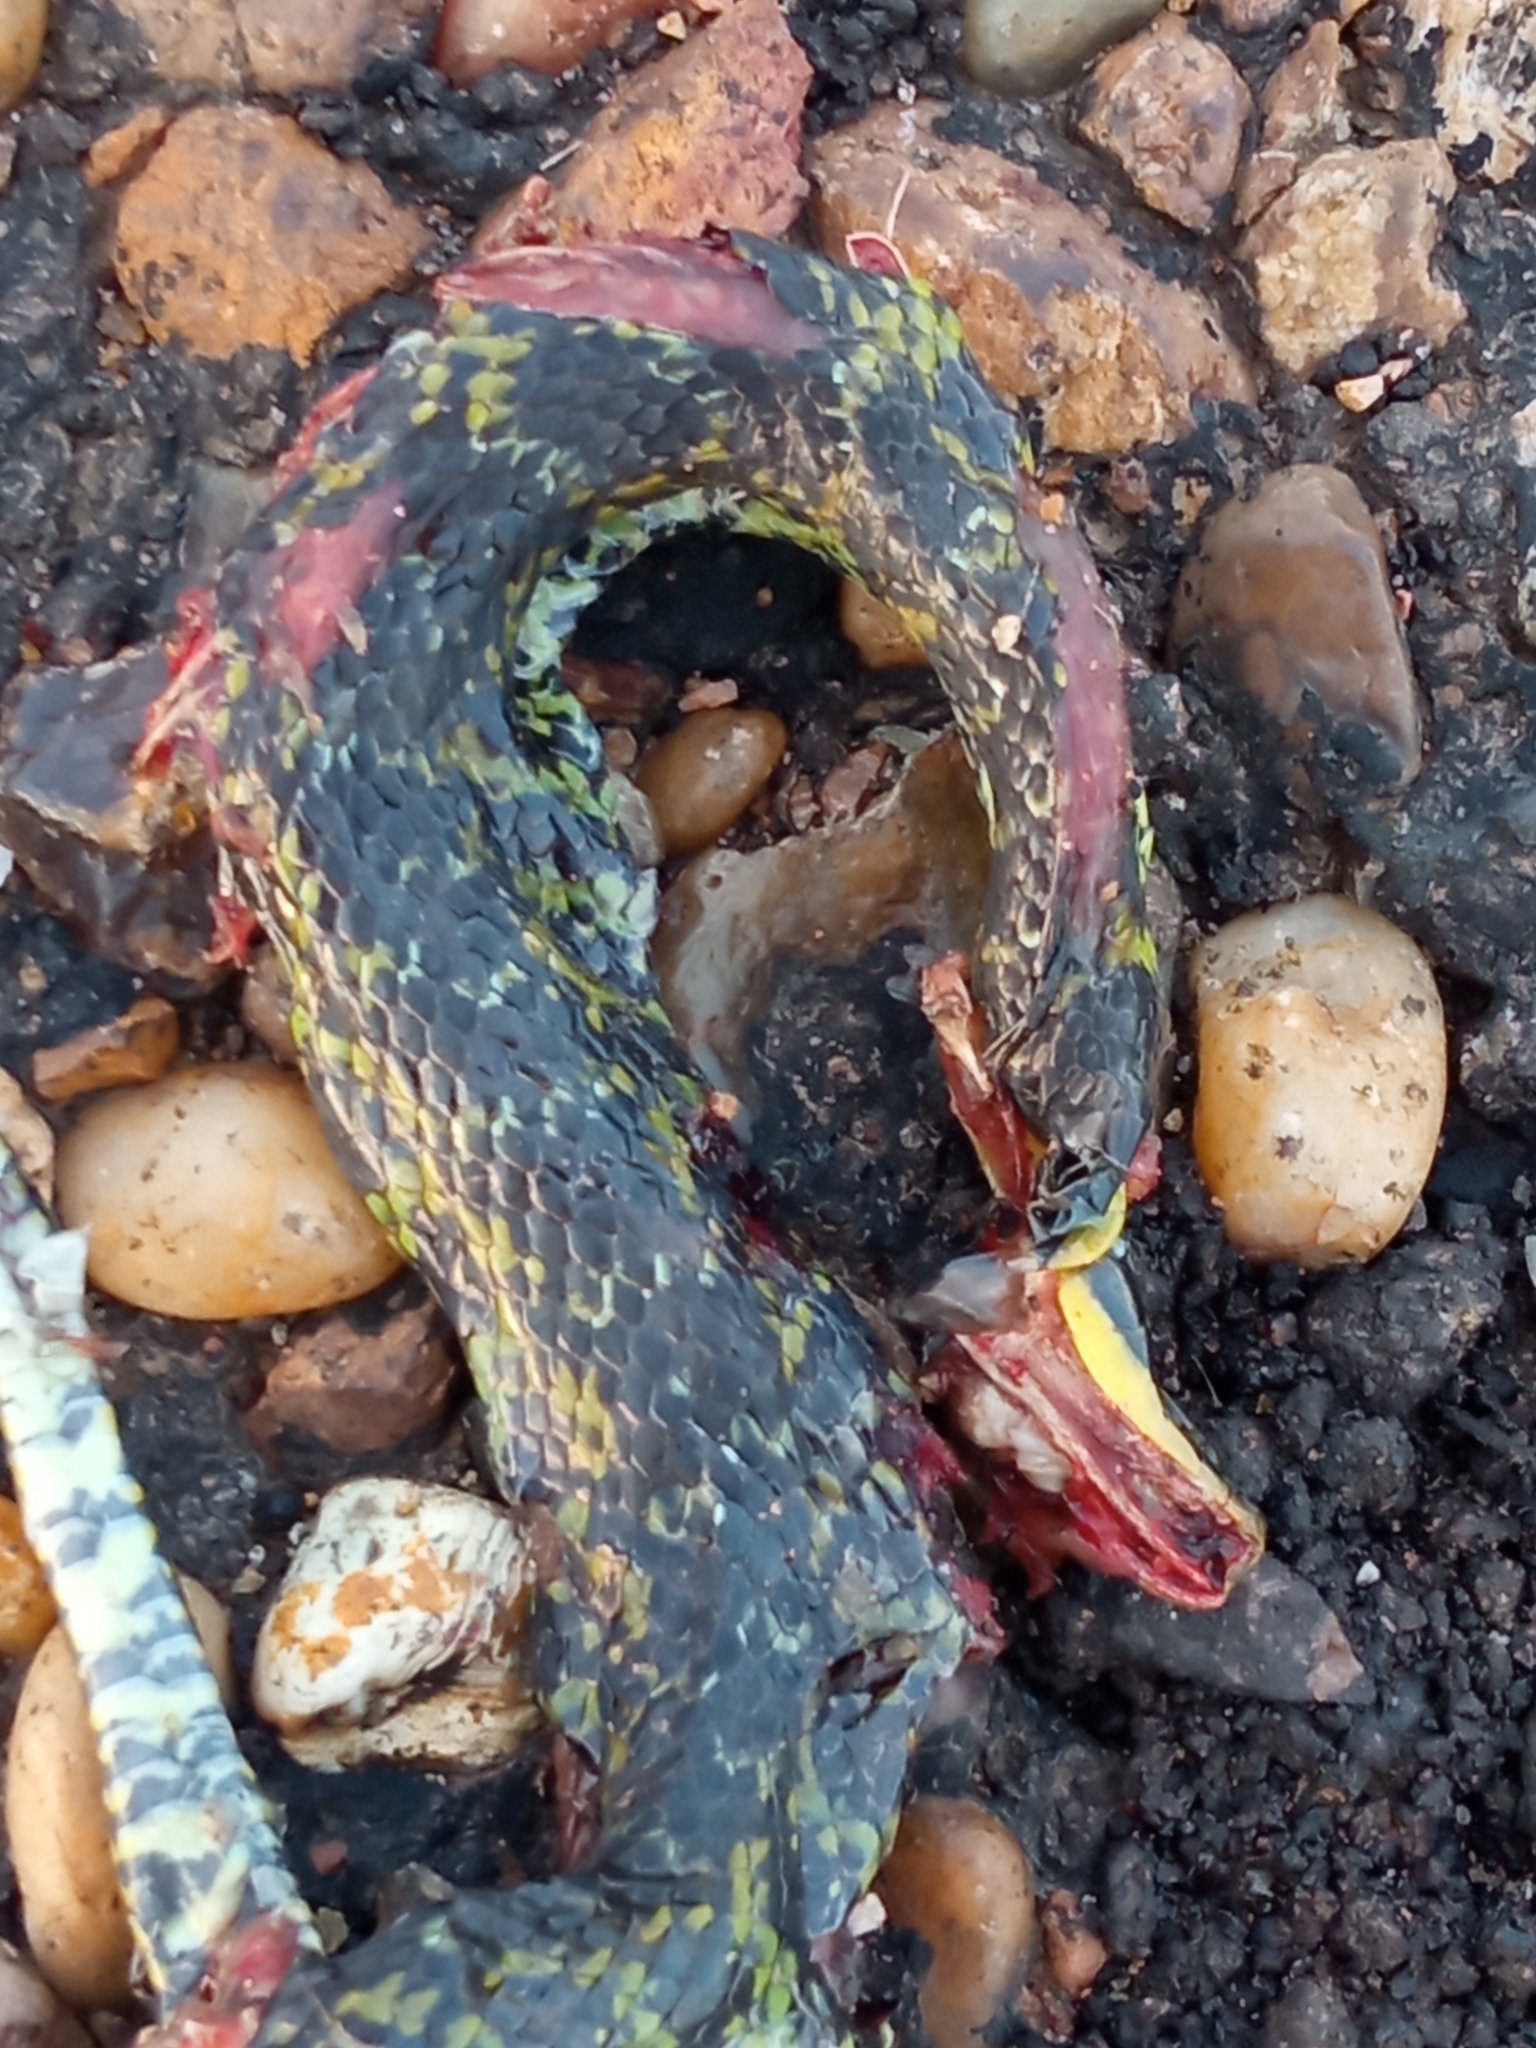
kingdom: Animalia
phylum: Chordata
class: Squamata
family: Colubridae
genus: Erythrolamprus
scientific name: Erythrolamprus poecilogyrus
